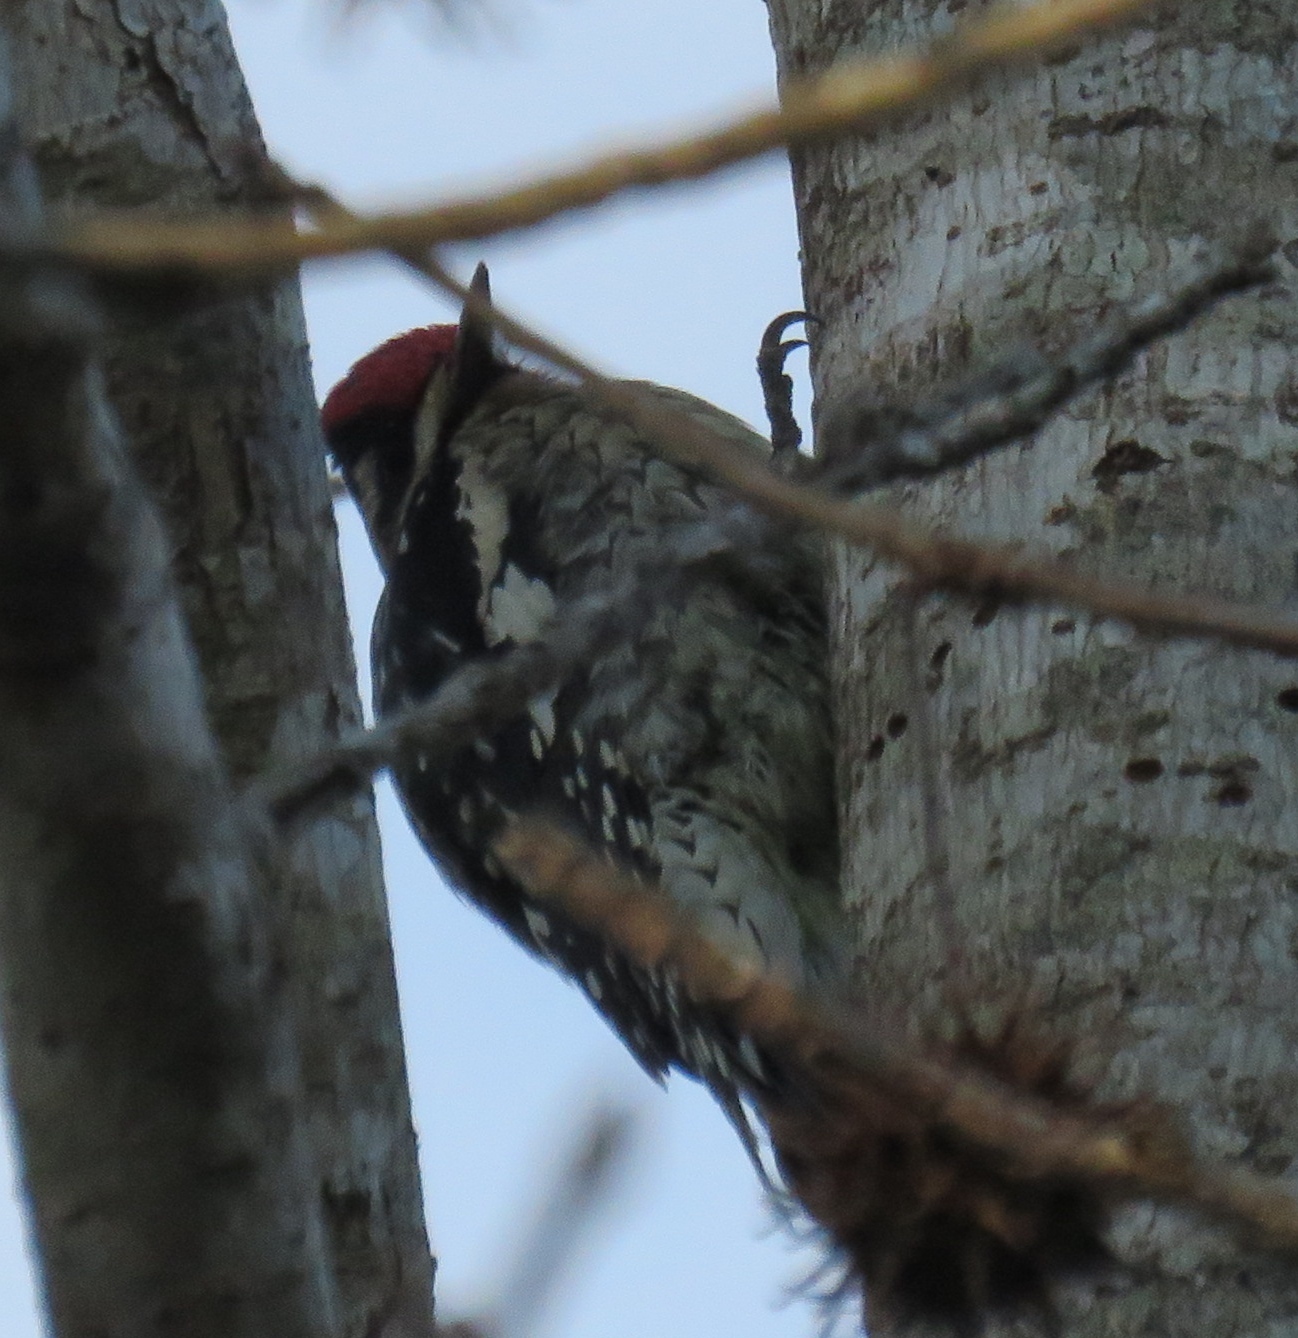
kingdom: Animalia
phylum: Chordata
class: Aves
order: Piciformes
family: Picidae
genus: Sphyrapicus
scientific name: Sphyrapicus varius
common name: Yellow-bellied sapsucker
